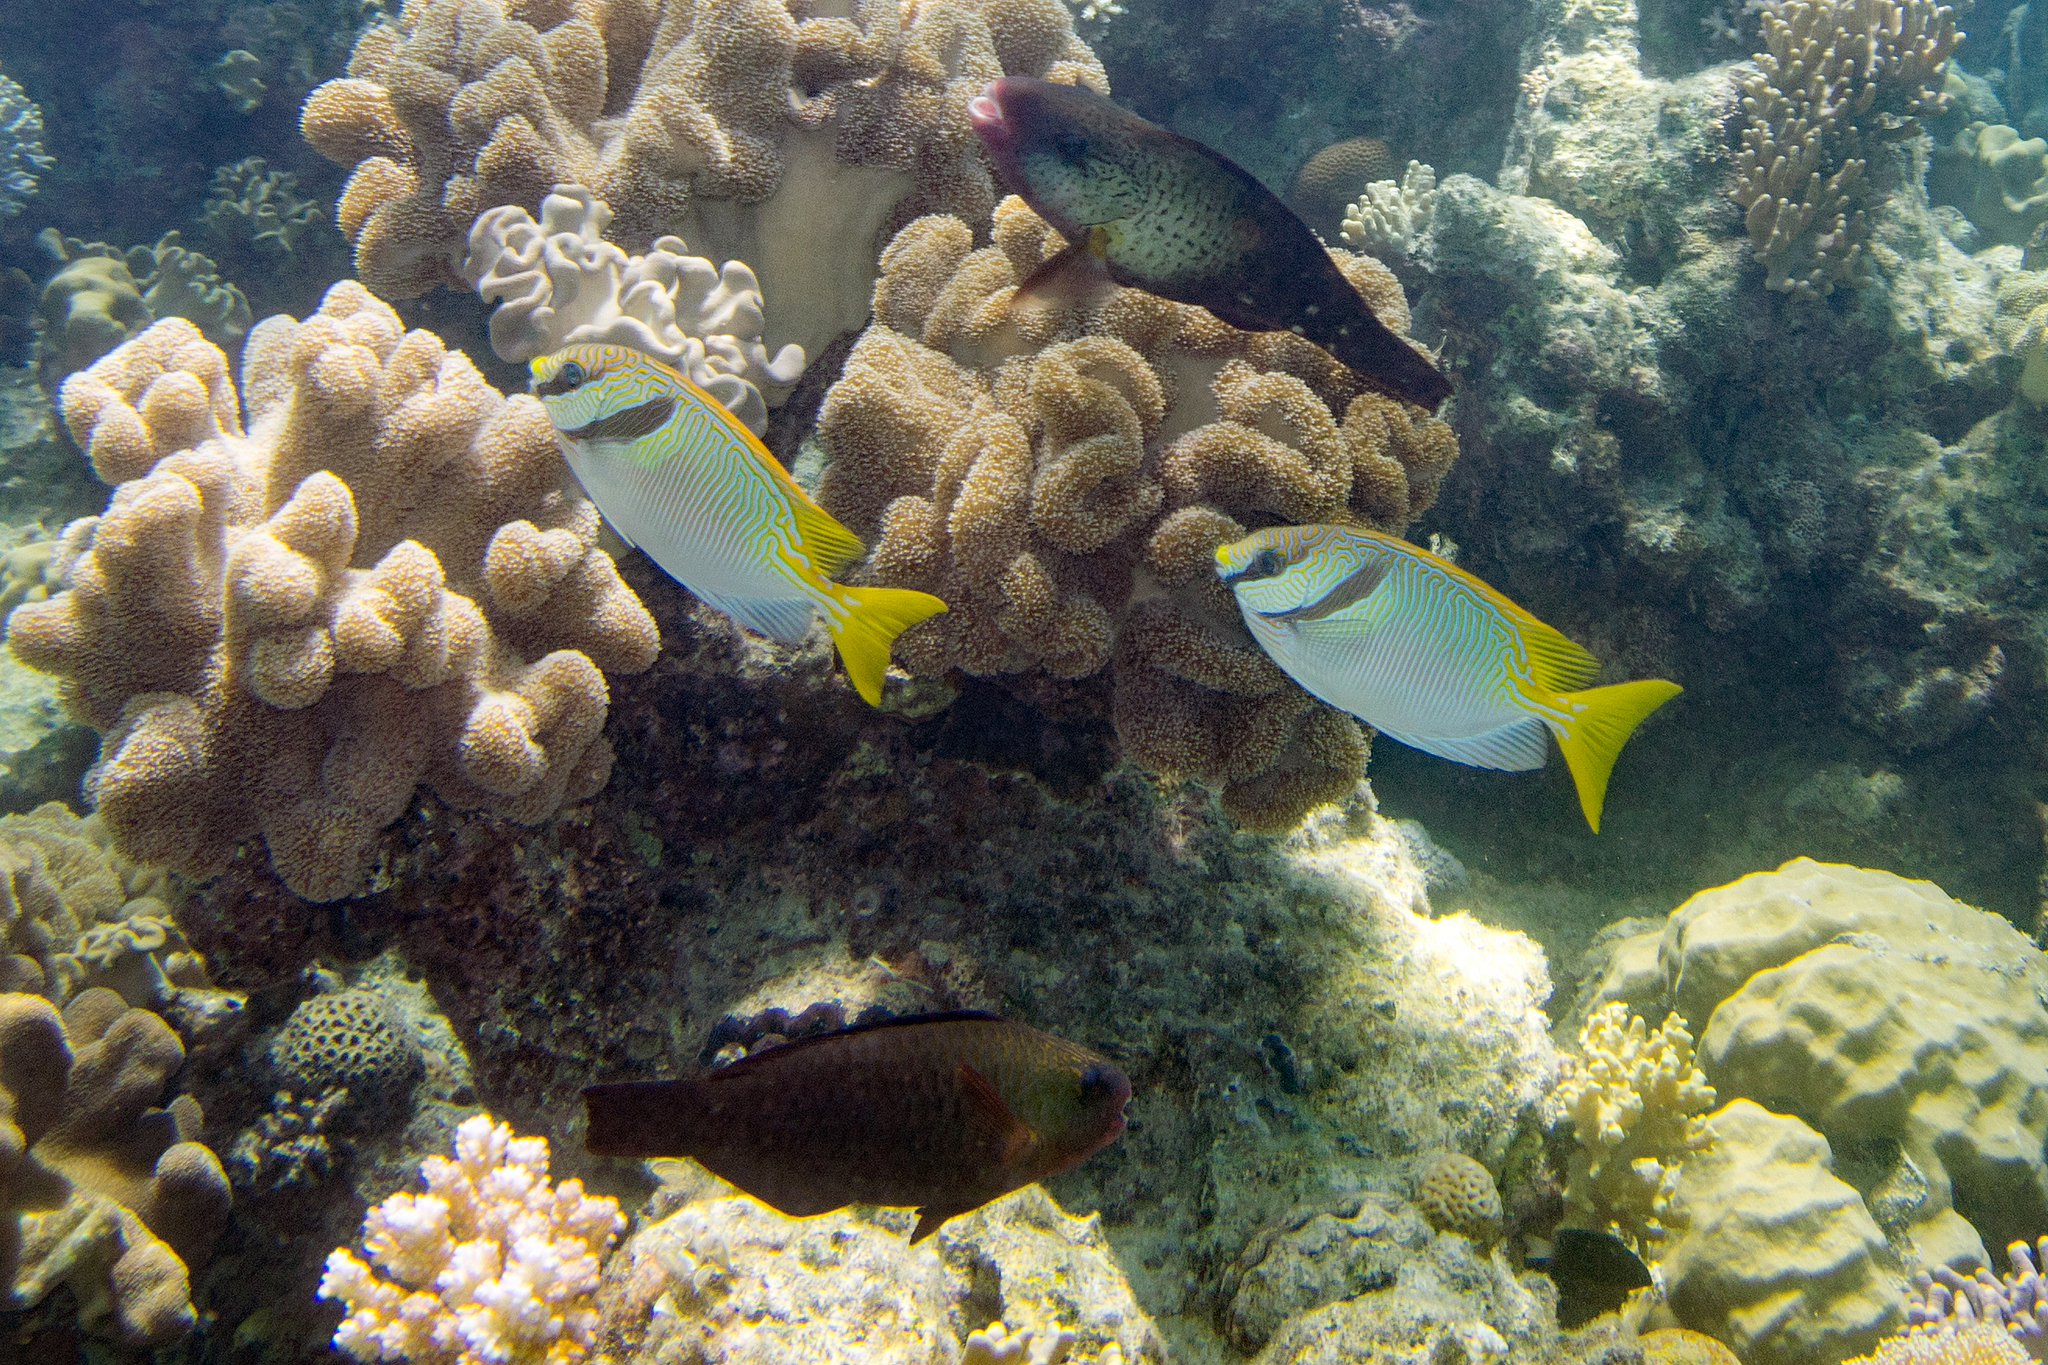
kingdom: Animalia
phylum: Chordata
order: Perciformes
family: Siganidae
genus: Siganus
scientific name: Siganus doliatus
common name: Barred spinefoot
